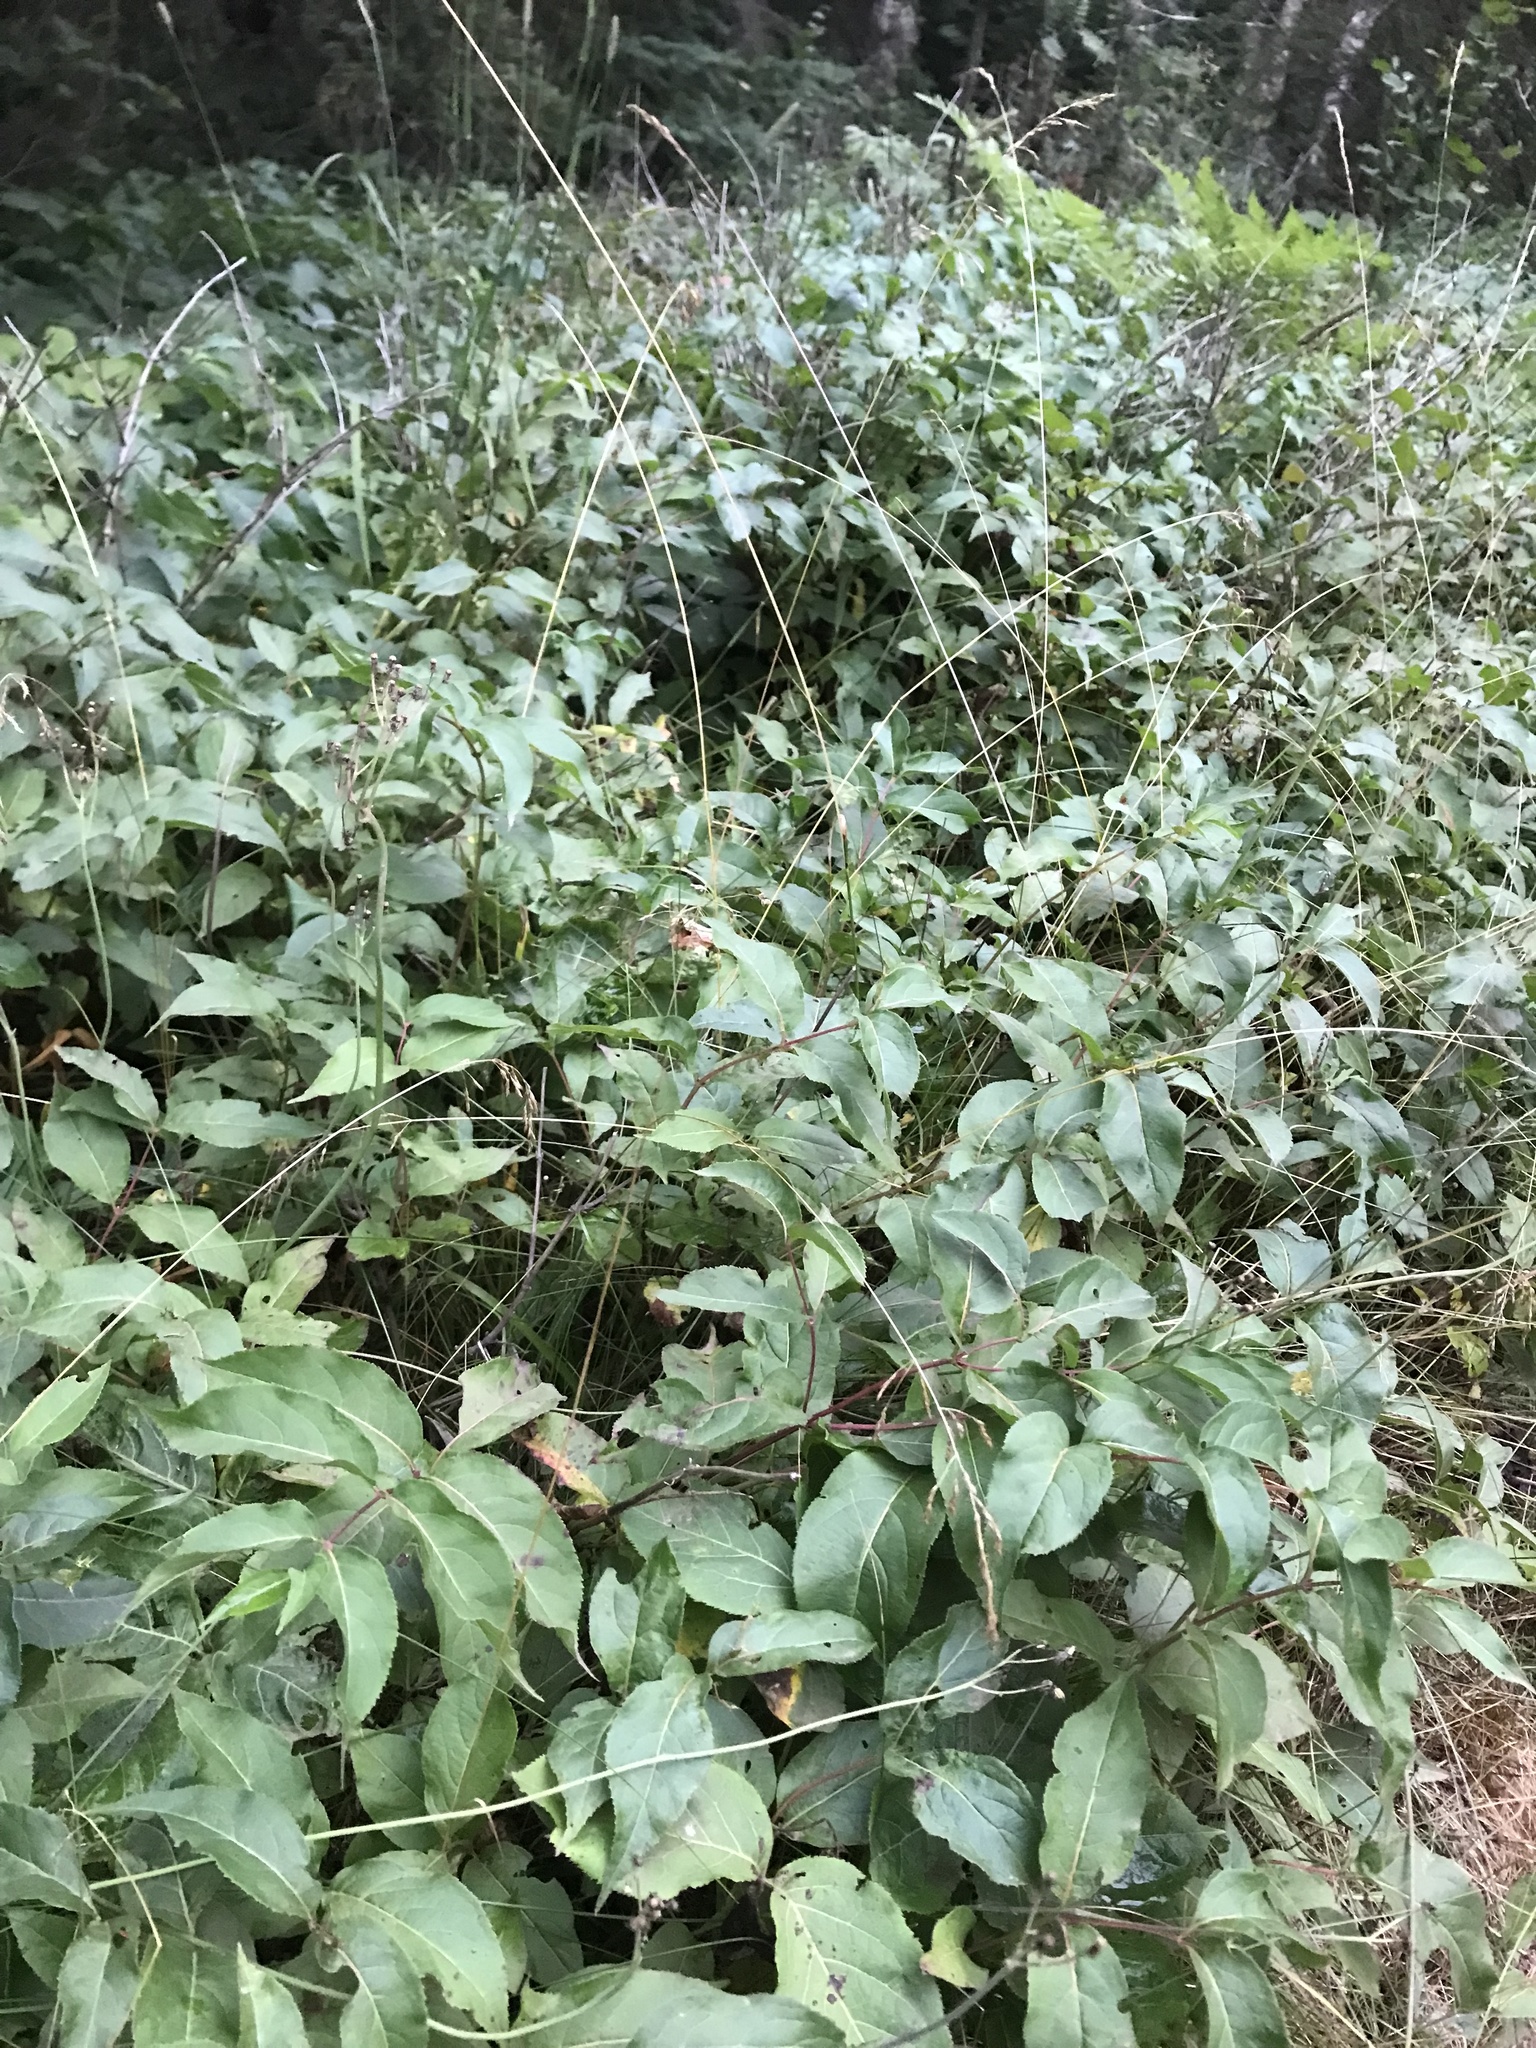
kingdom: Plantae
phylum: Tracheophyta
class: Magnoliopsida
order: Dipsacales
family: Caprifoliaceae
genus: Diervilla
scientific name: Diervilla lonicera
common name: Bush-honeysuckle
